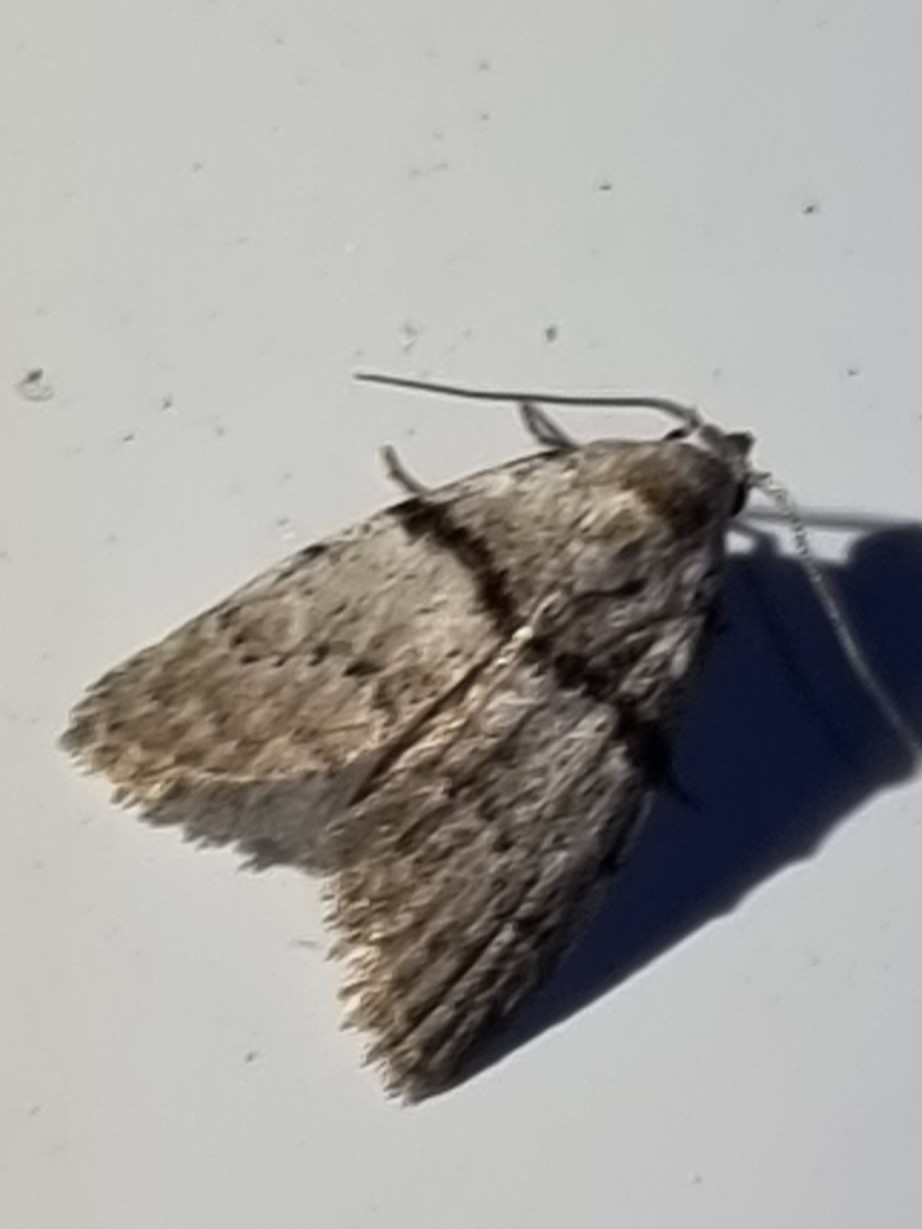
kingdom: Animalia
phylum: Arthropoda
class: Insecta
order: Lepidoptera
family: Nolidae
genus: Nola
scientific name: Nola pygmaeodes
